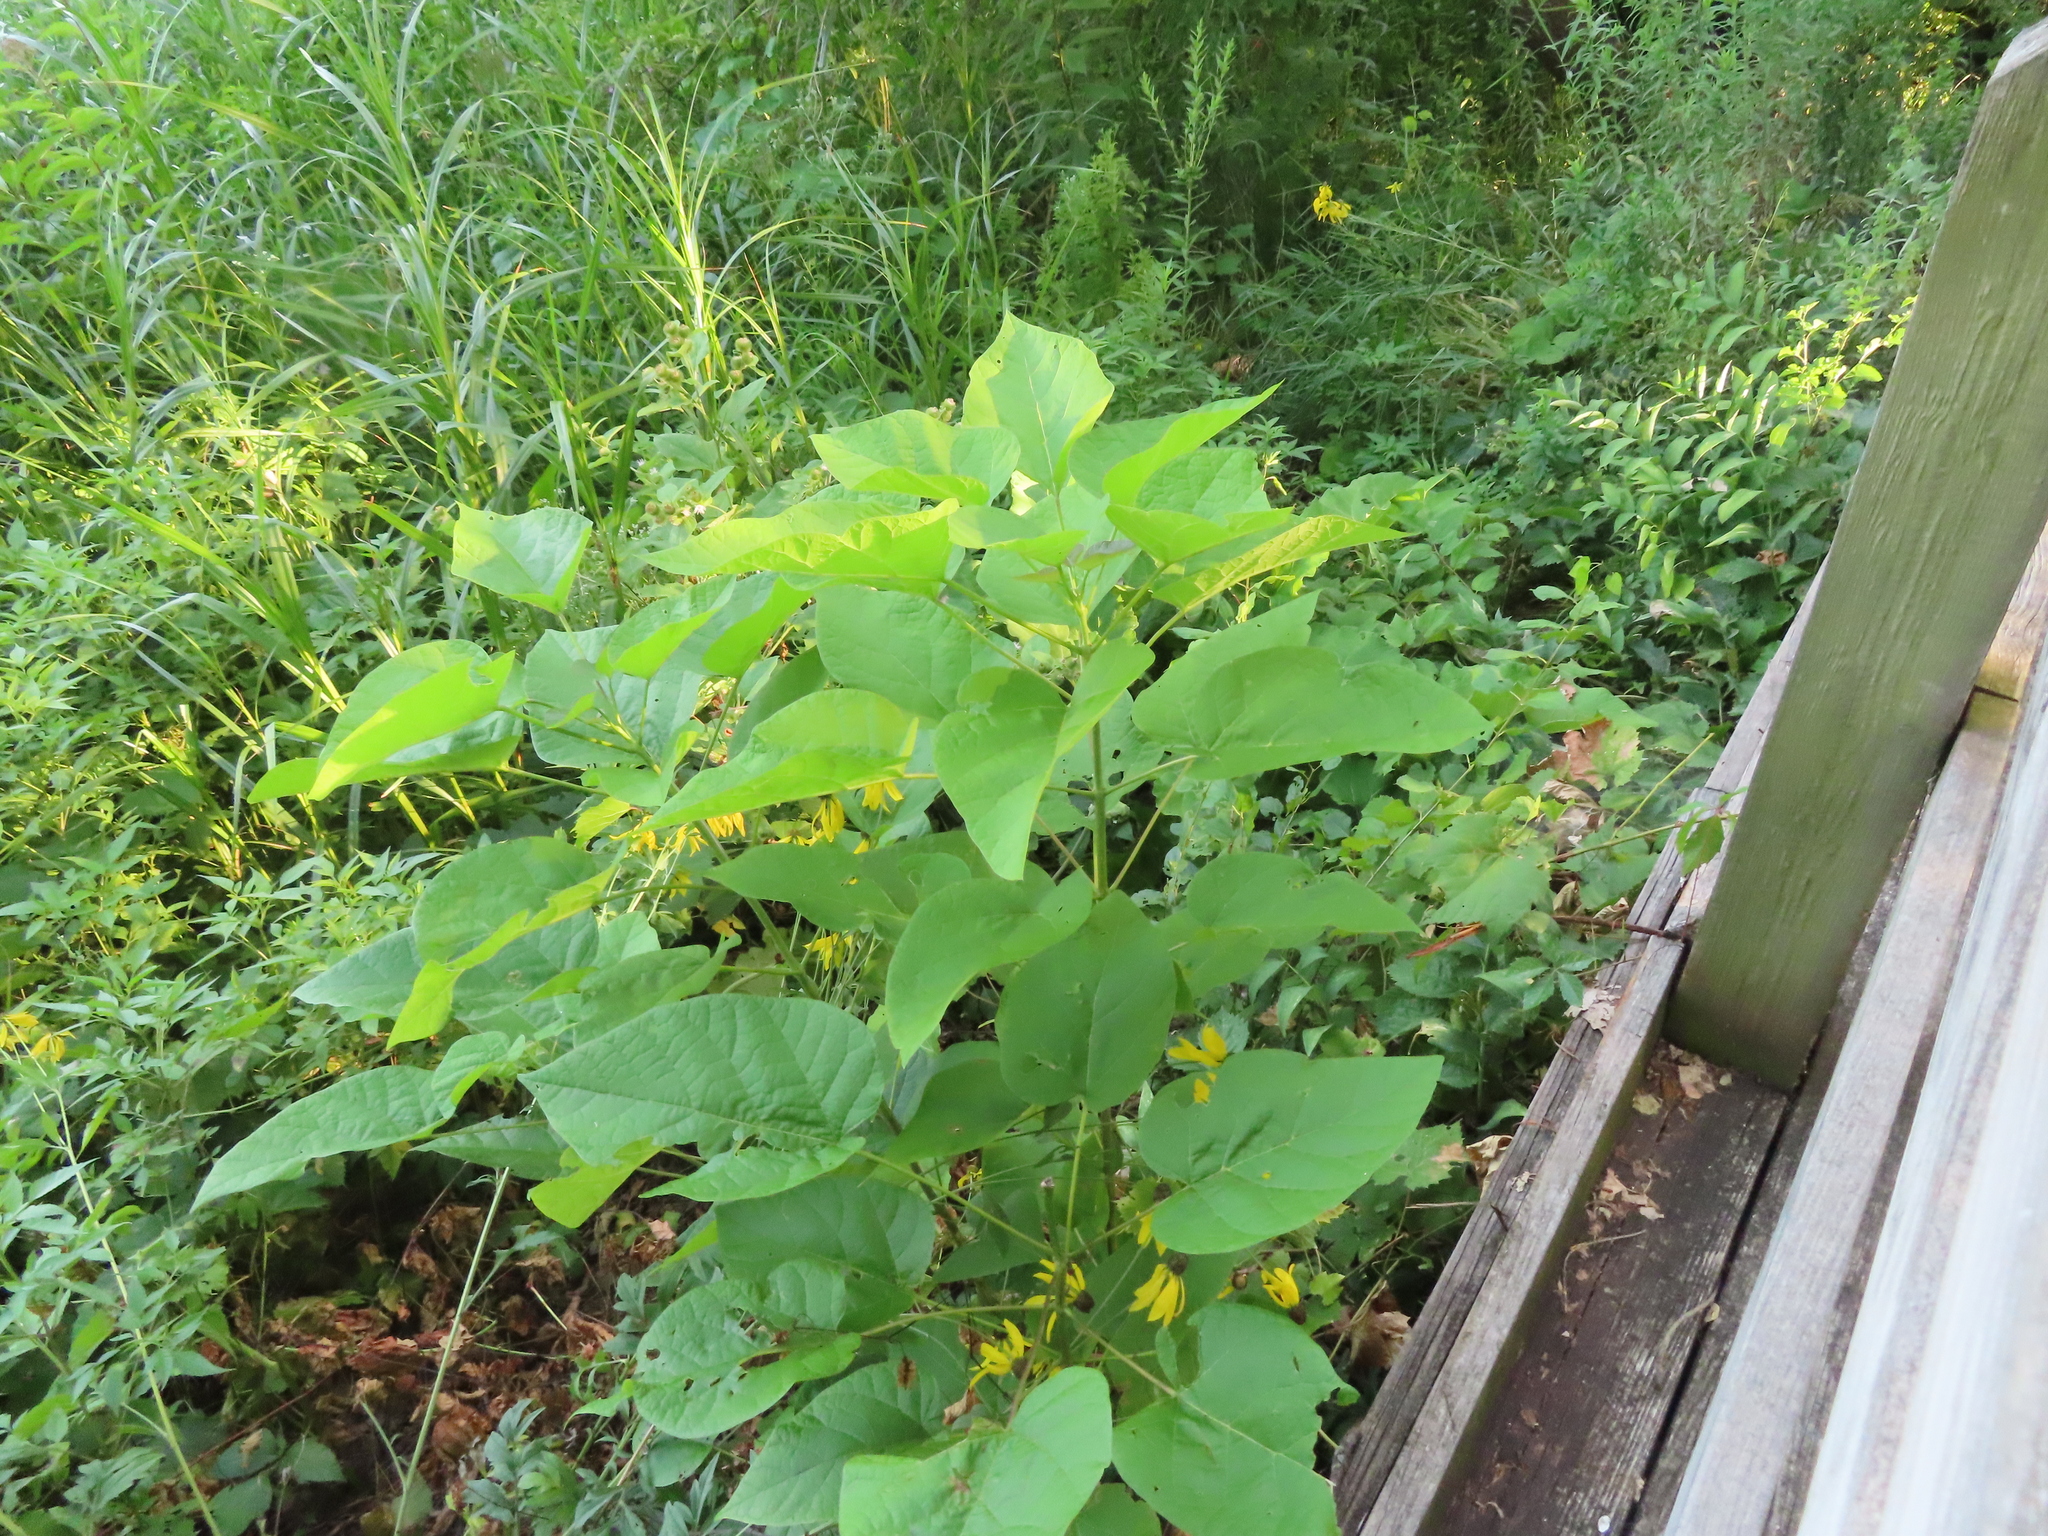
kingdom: Plantae
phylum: Tracheophyta
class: Magnoliopsida
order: Lamiales
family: Bignoniaceae
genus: Catalpa
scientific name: Catalpa speciosa
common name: Northern catalpa
